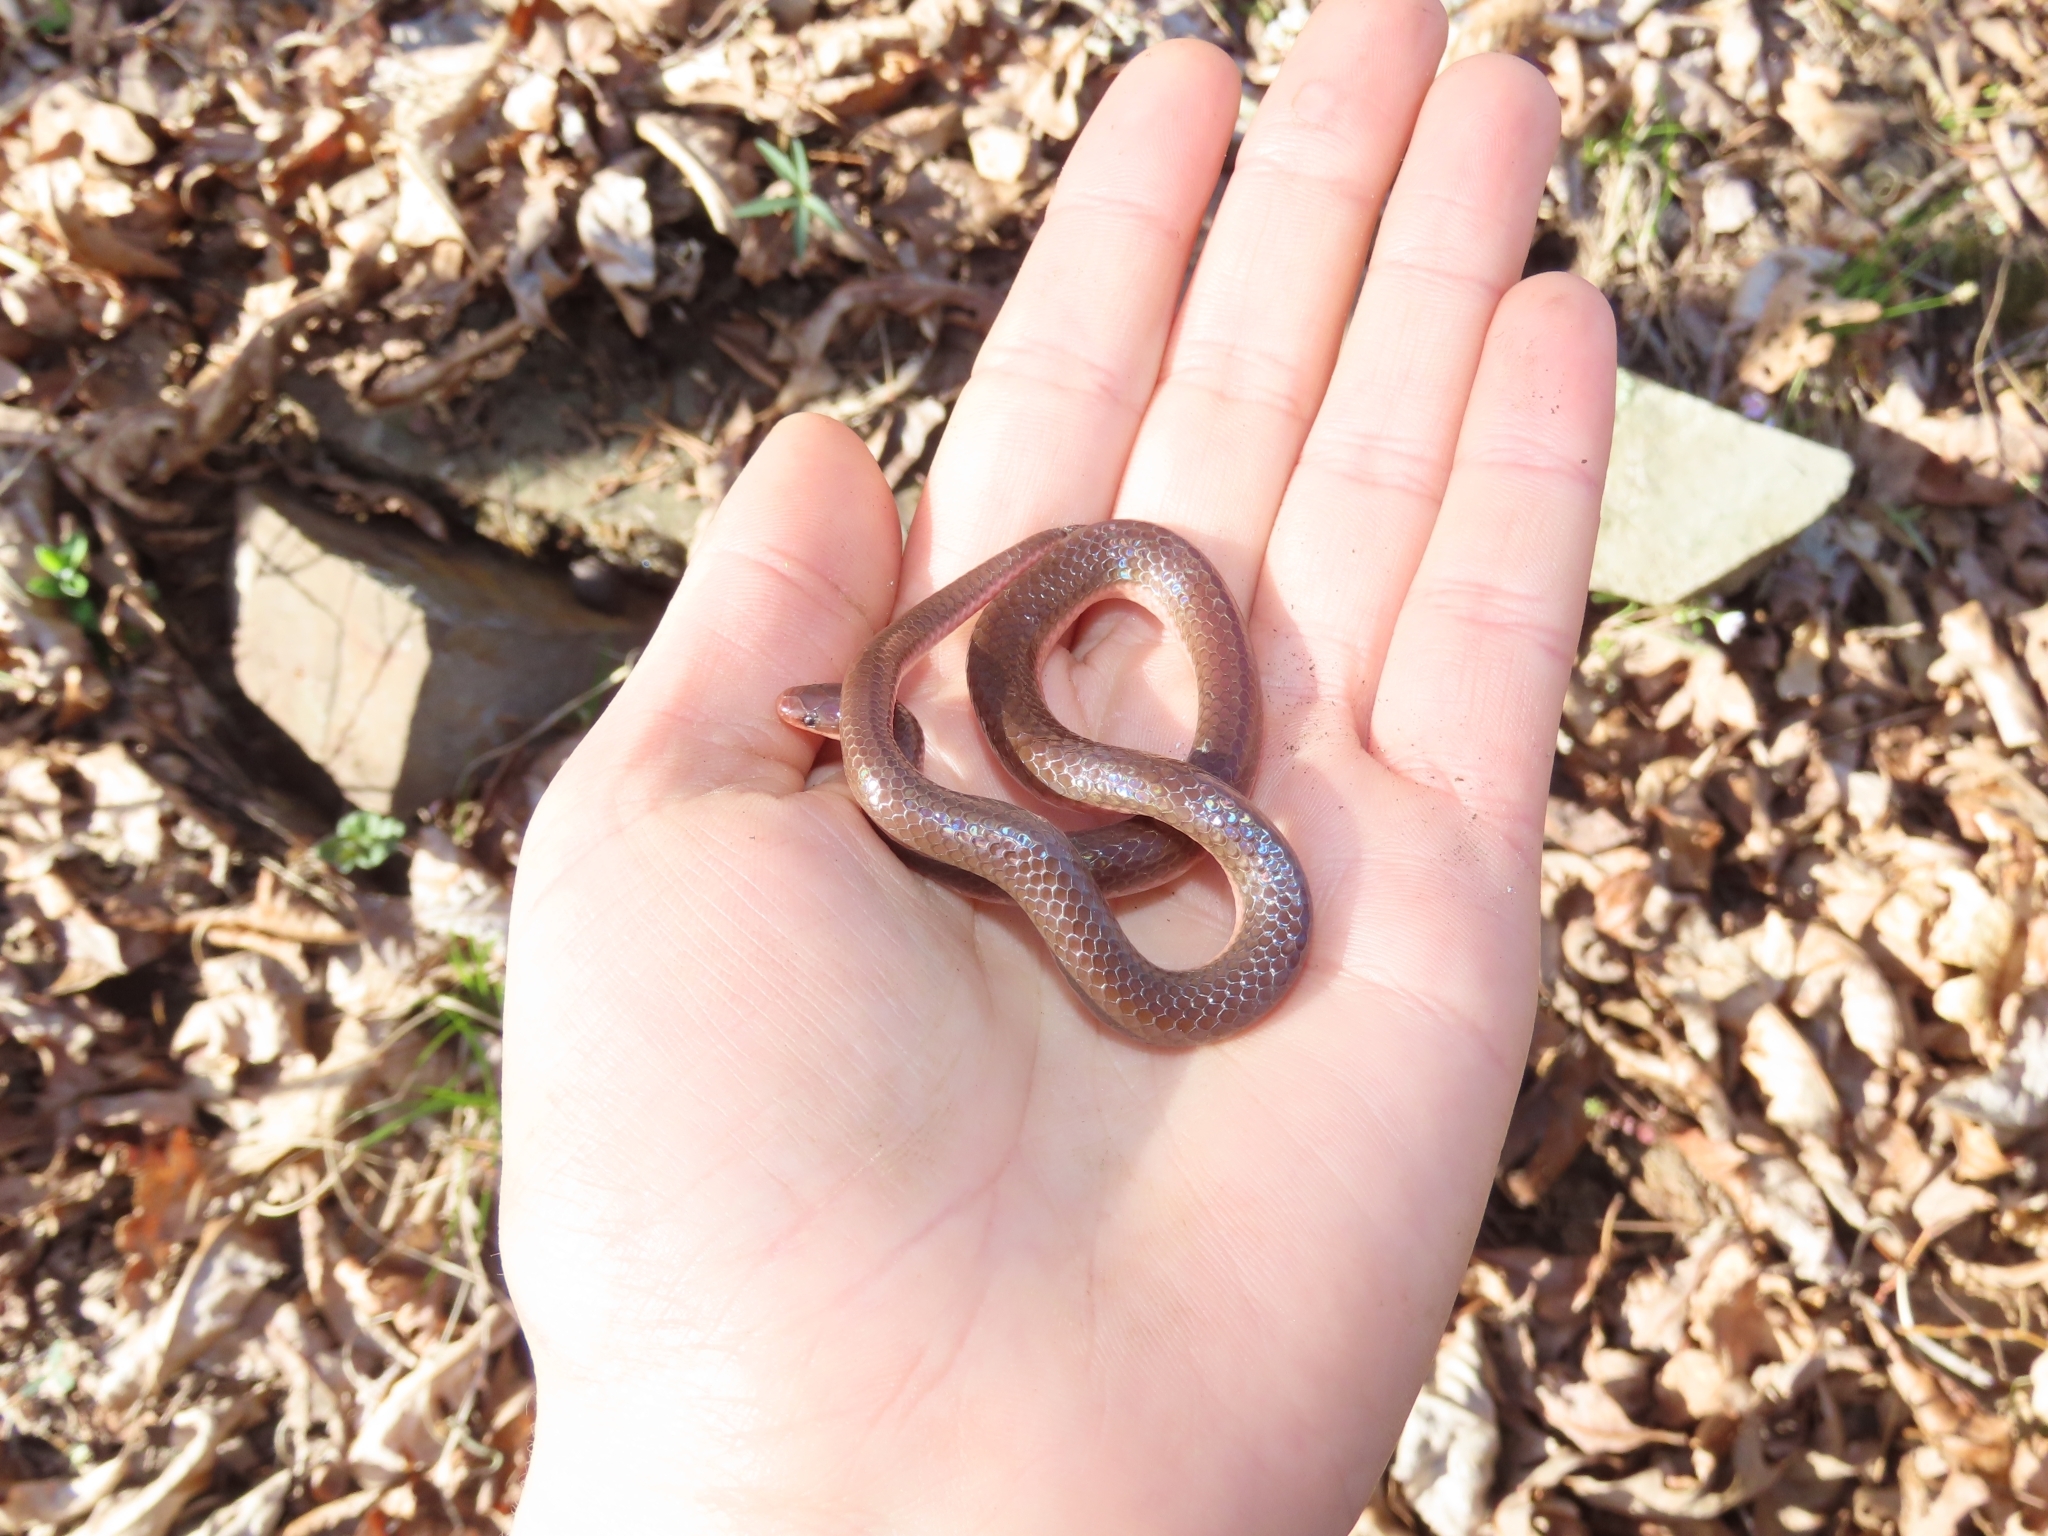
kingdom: Animalia
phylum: Chordata
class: Squamata
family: Colubridae
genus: Carphophis
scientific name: Carphophis amoenus
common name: Eastern worm snake
